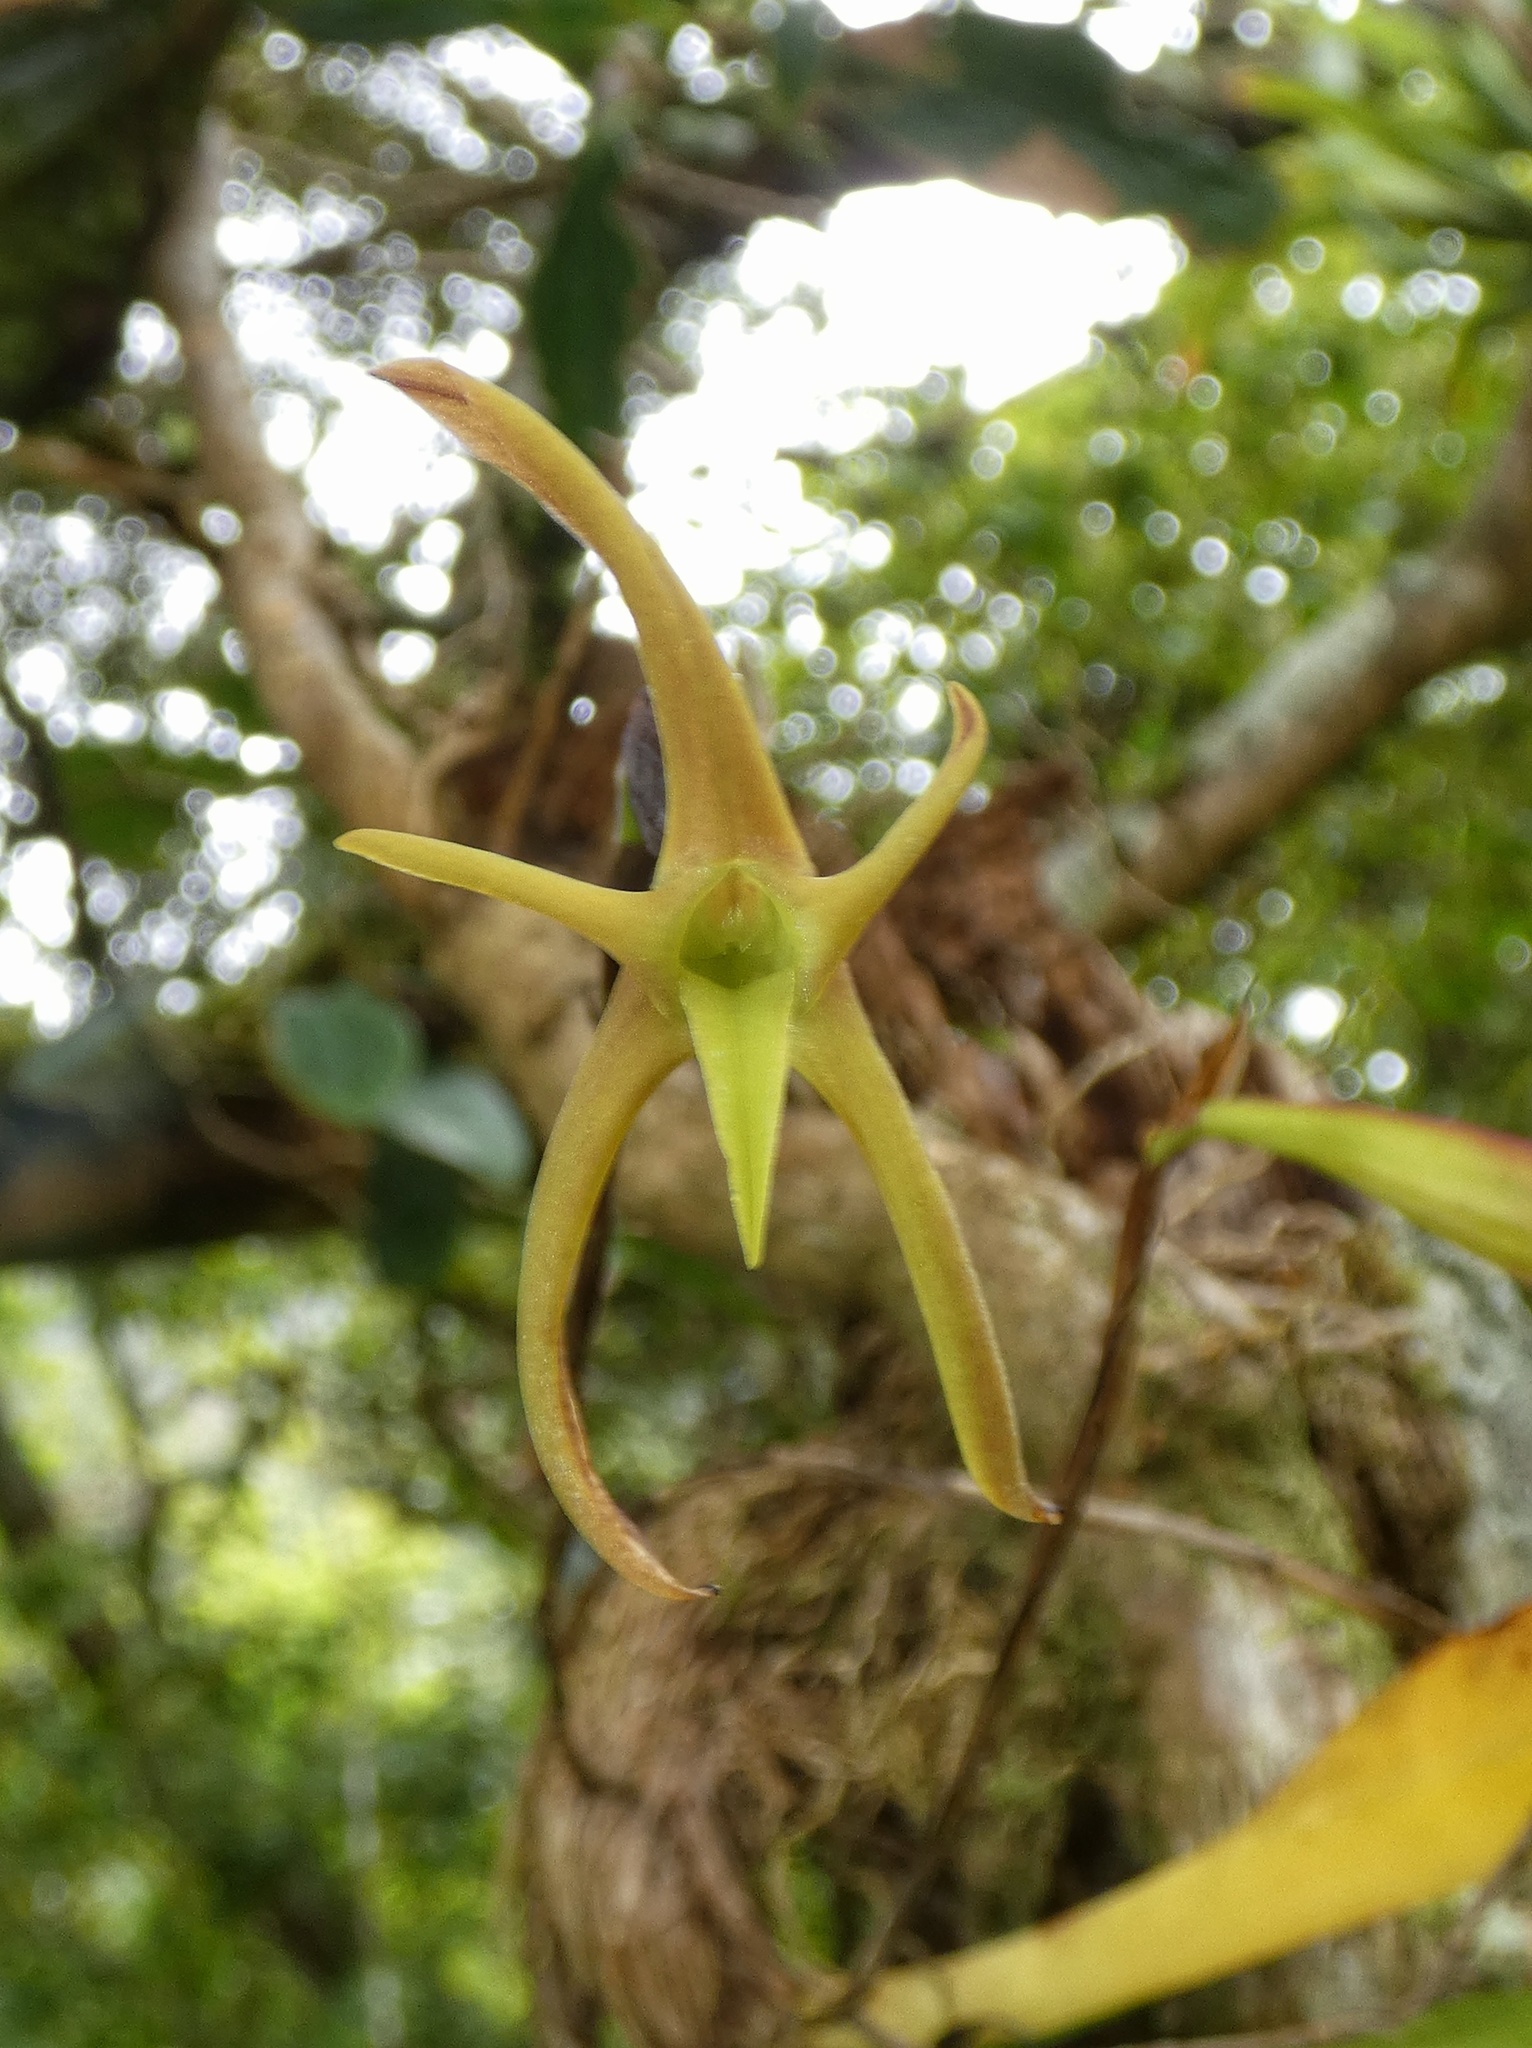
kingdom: Plantae
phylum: Tracheophyta
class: Liliopsida
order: Asparagales
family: Orchidaceae
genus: Maxillaria
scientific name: Maxillaria amplifoliata
